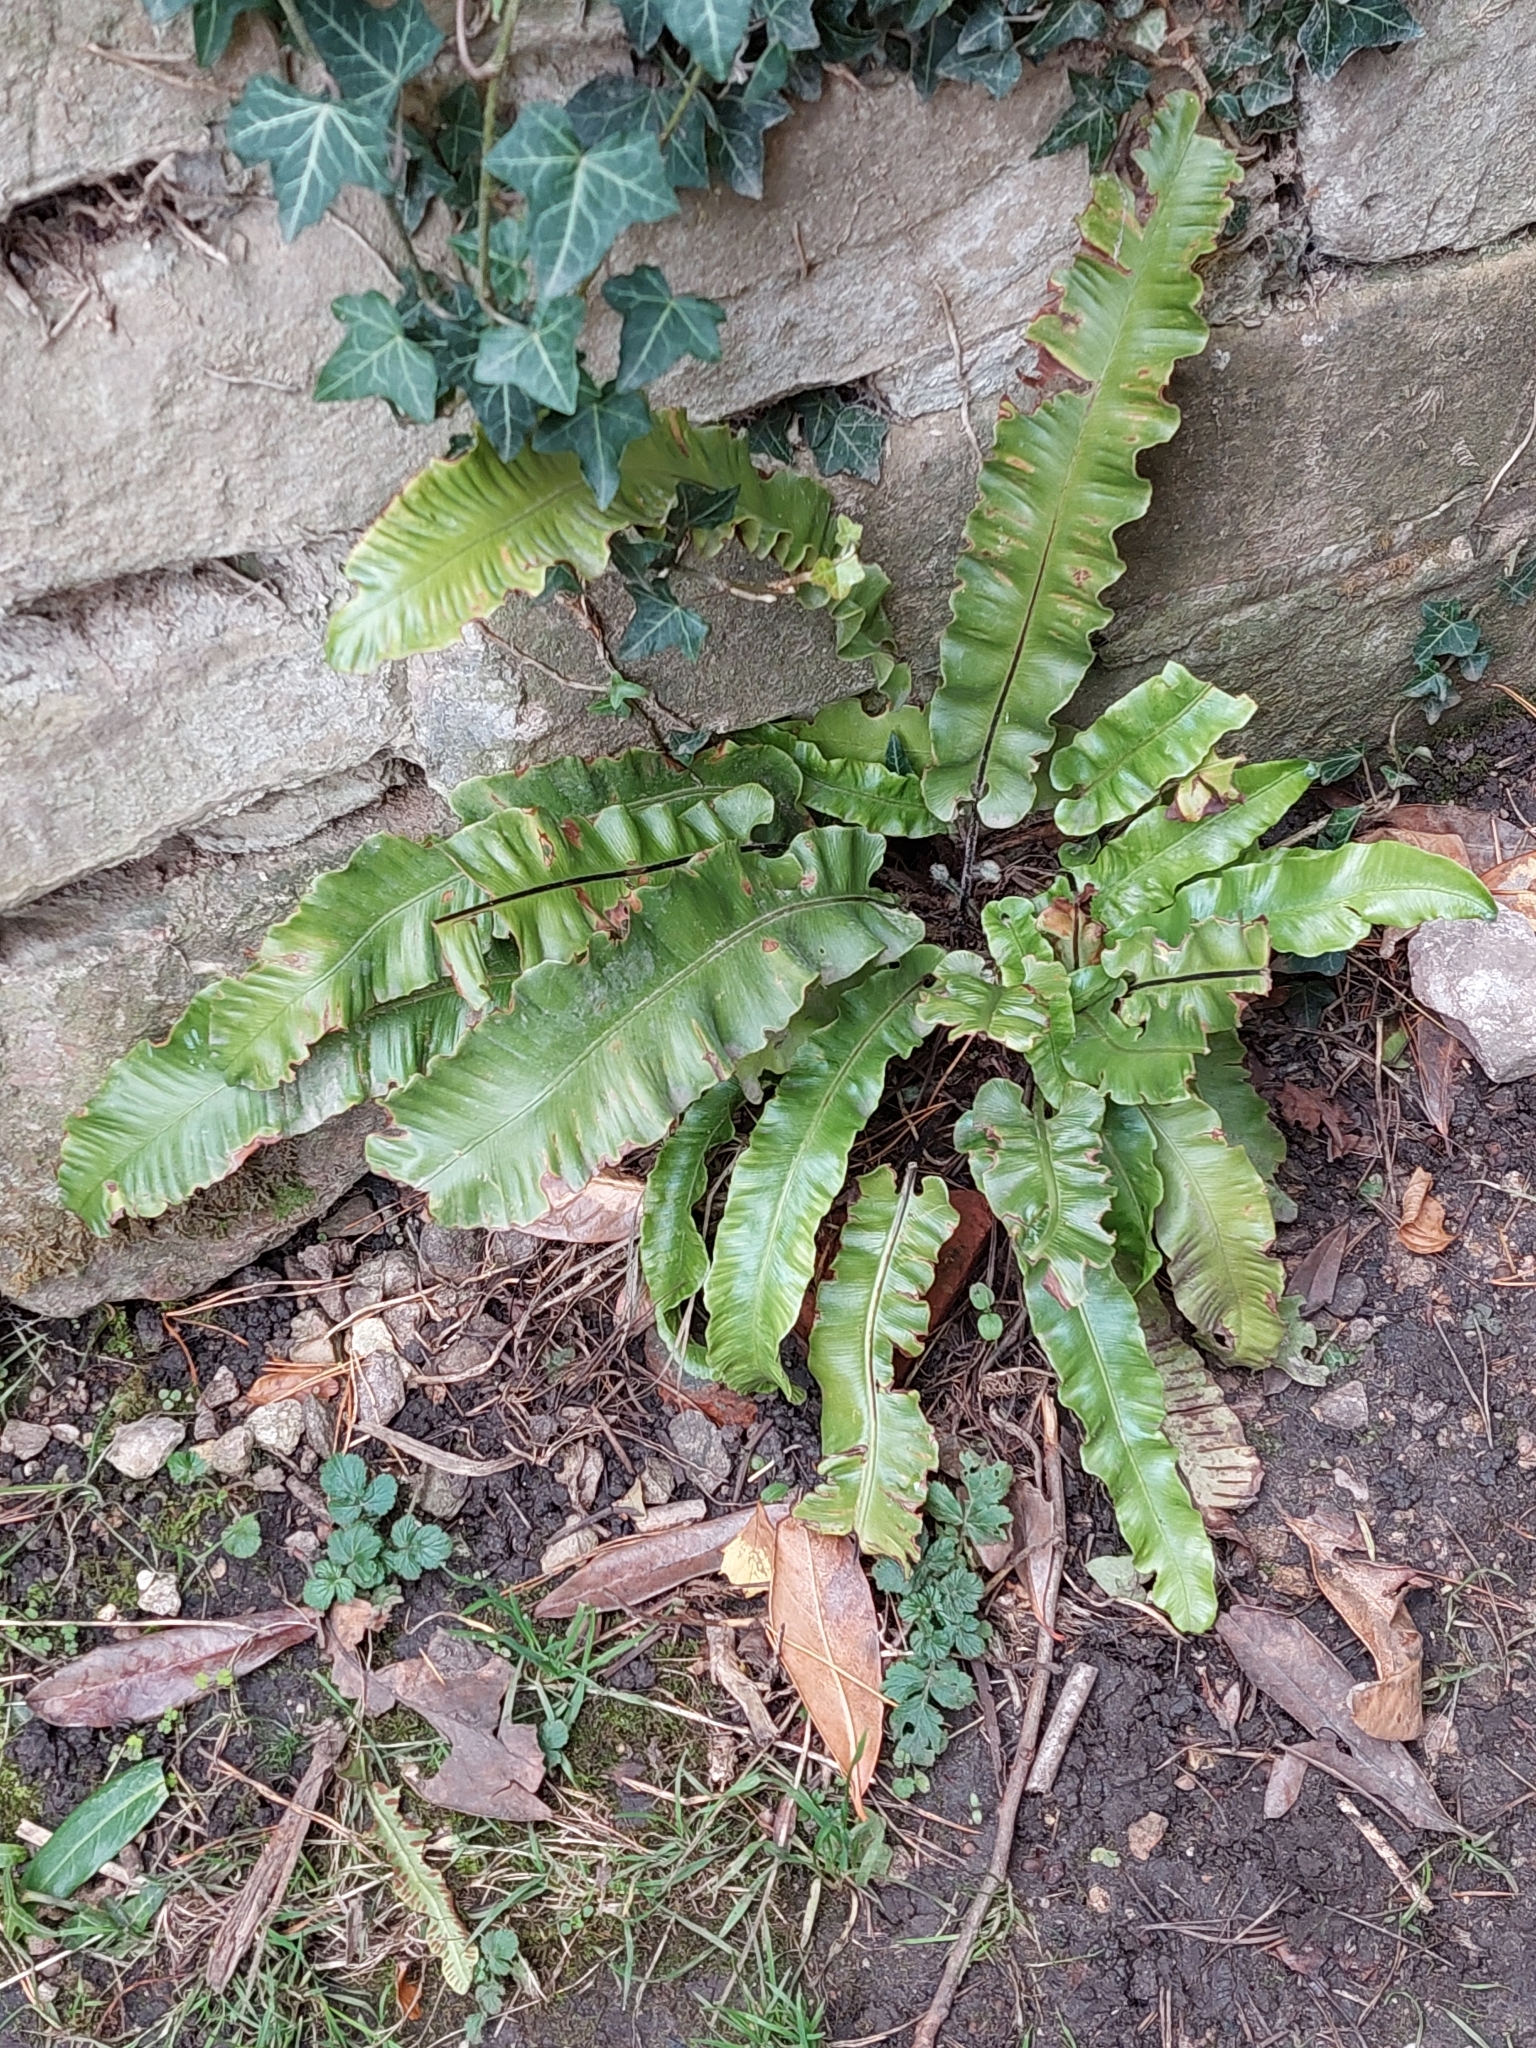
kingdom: Plantae
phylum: Tracheophyta
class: Polypodiopsida
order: Polypodiales
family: Aspleniaceae
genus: Asplenium
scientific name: Asplenium scolopendrium
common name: Hart's-tongue fern
